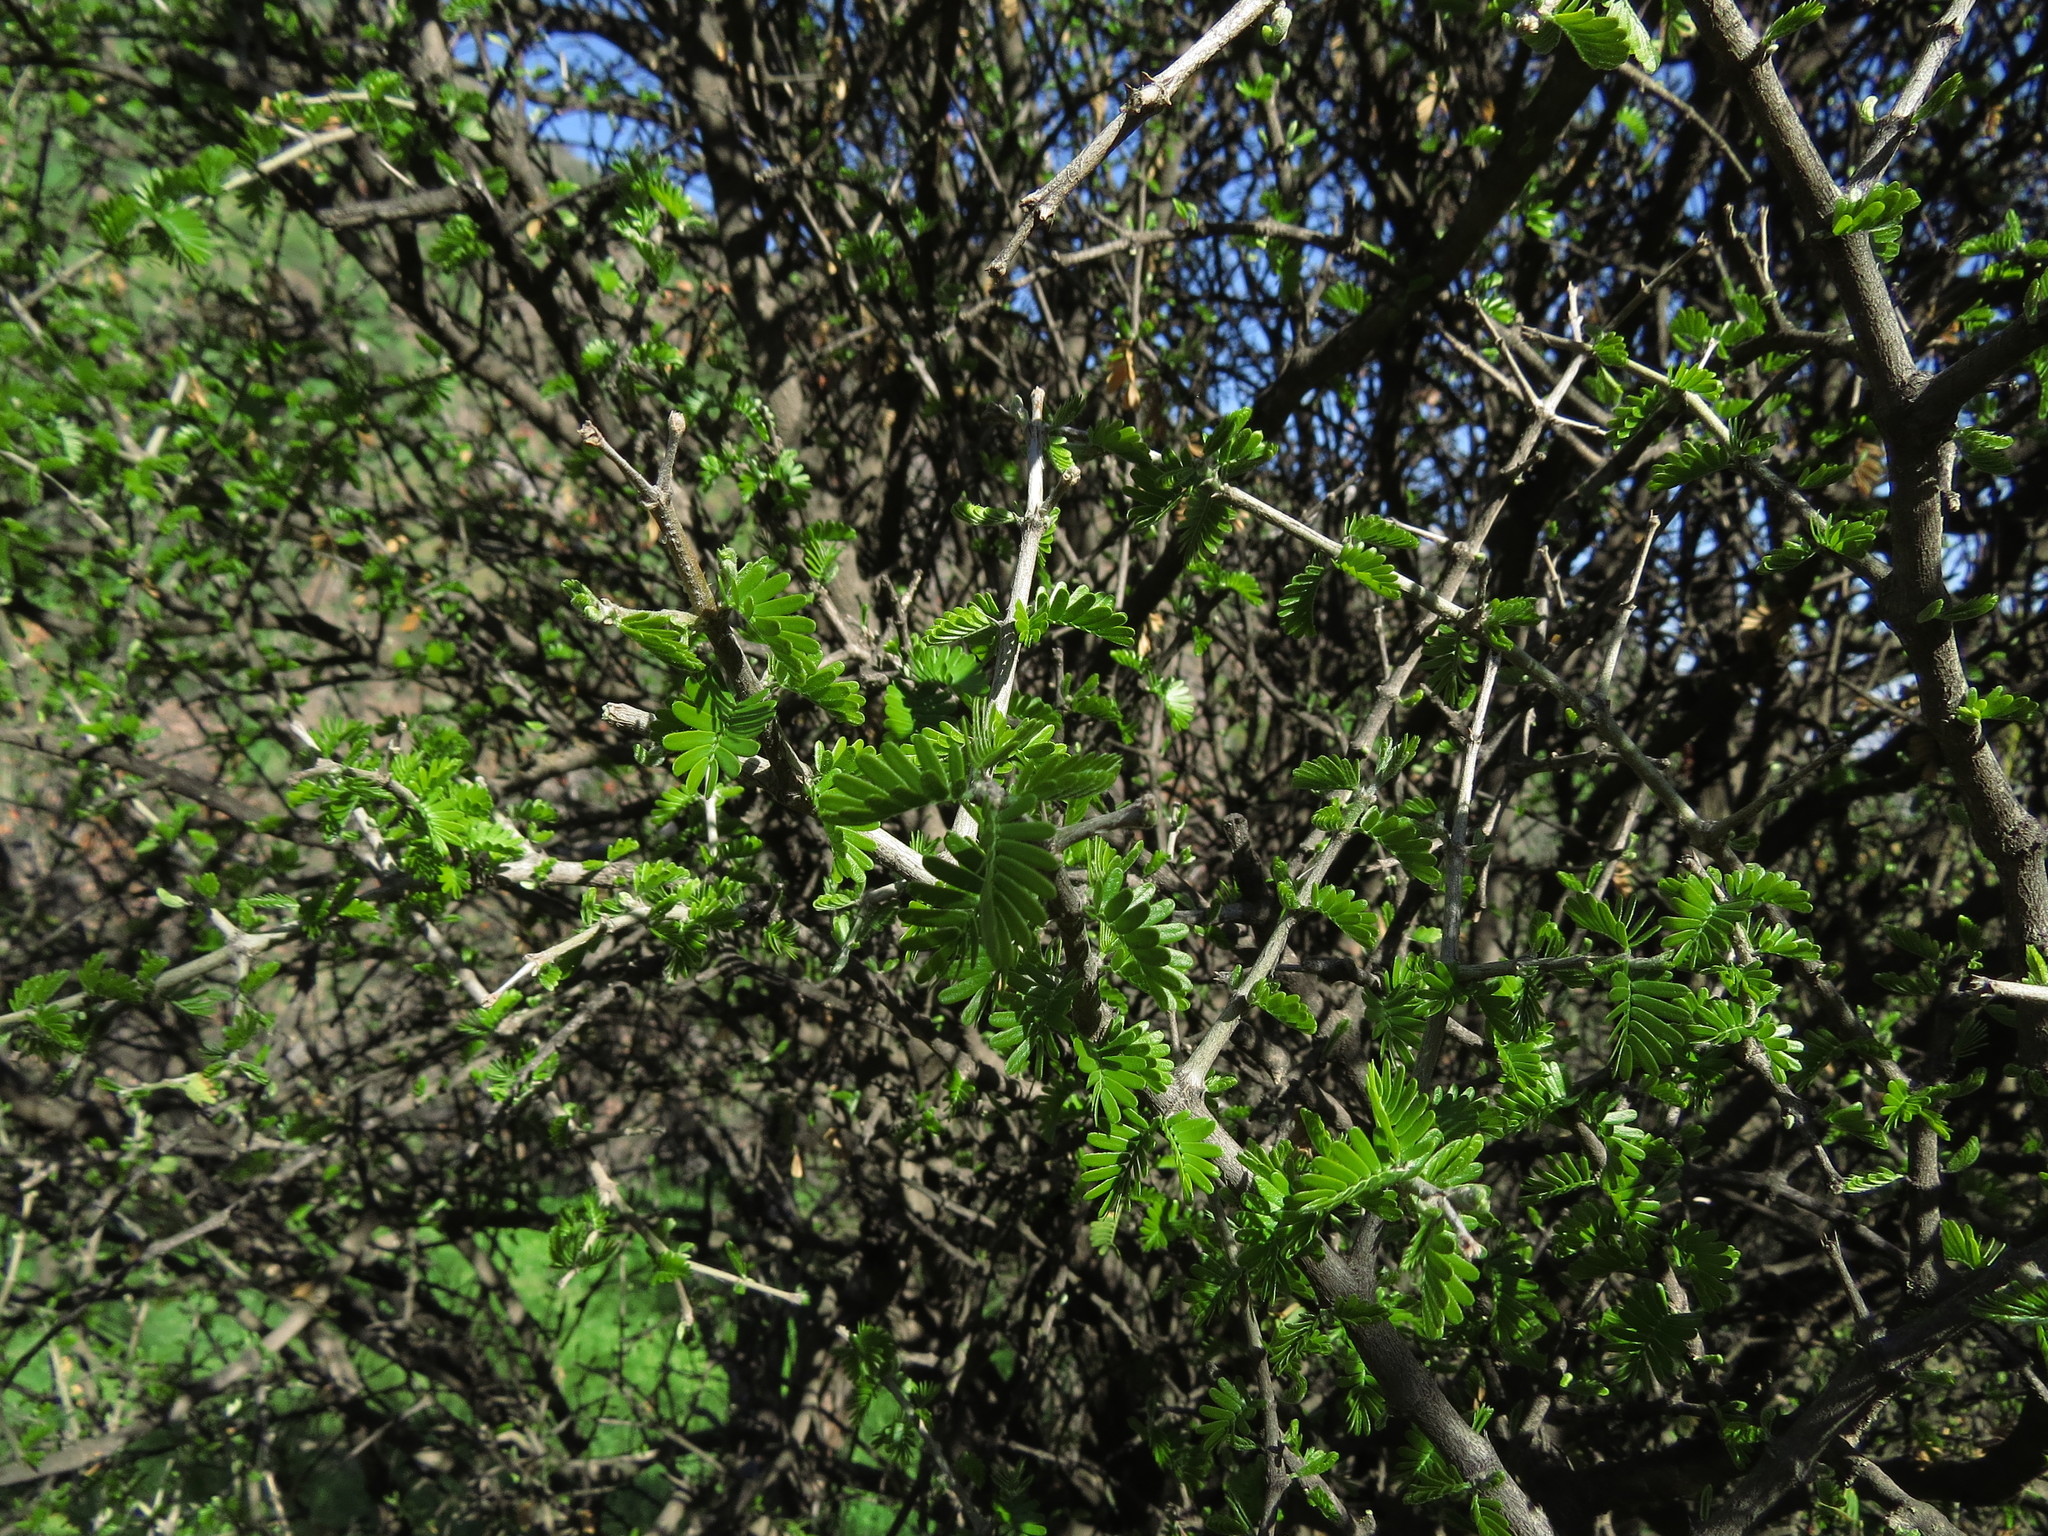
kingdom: Plantae
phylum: Tracheophyta
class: Magnoliopsida
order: Zygophyllales
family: Zygophyllaceae
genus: Porlieria
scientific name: Porlieria chilensis
